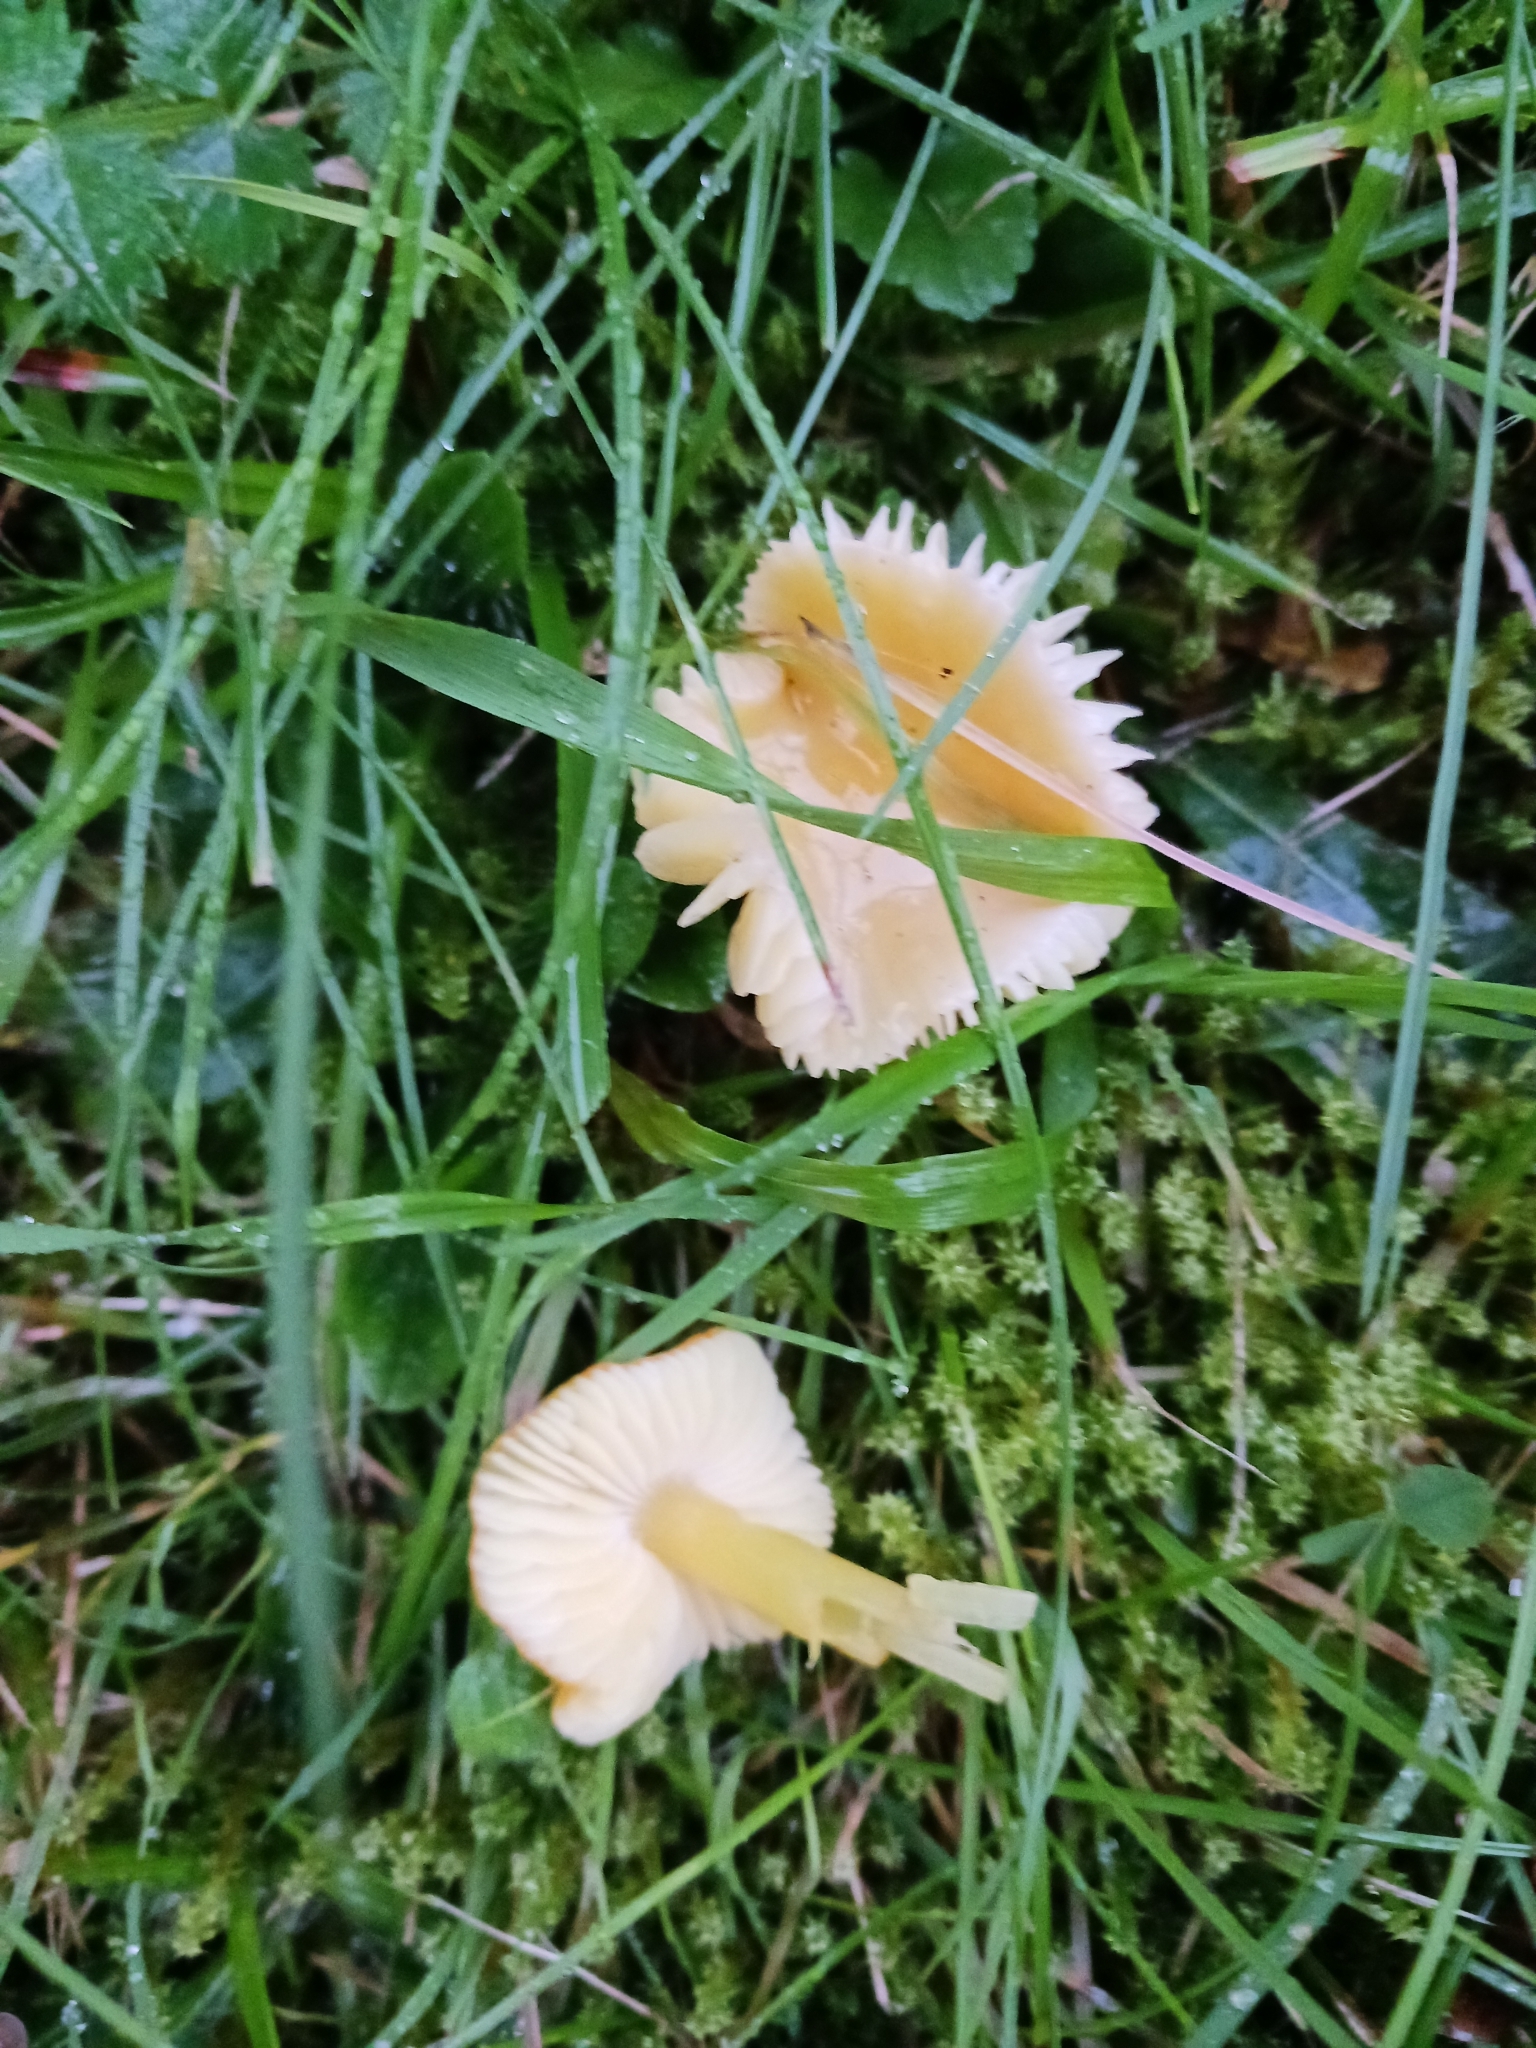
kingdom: Fungi
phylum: Basidiomycota
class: Agaricomycetes
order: Agaricales
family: Hygrophoraceae
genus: Hygrocybe
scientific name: Hygrocybe chlorophana
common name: Golden waxcap
